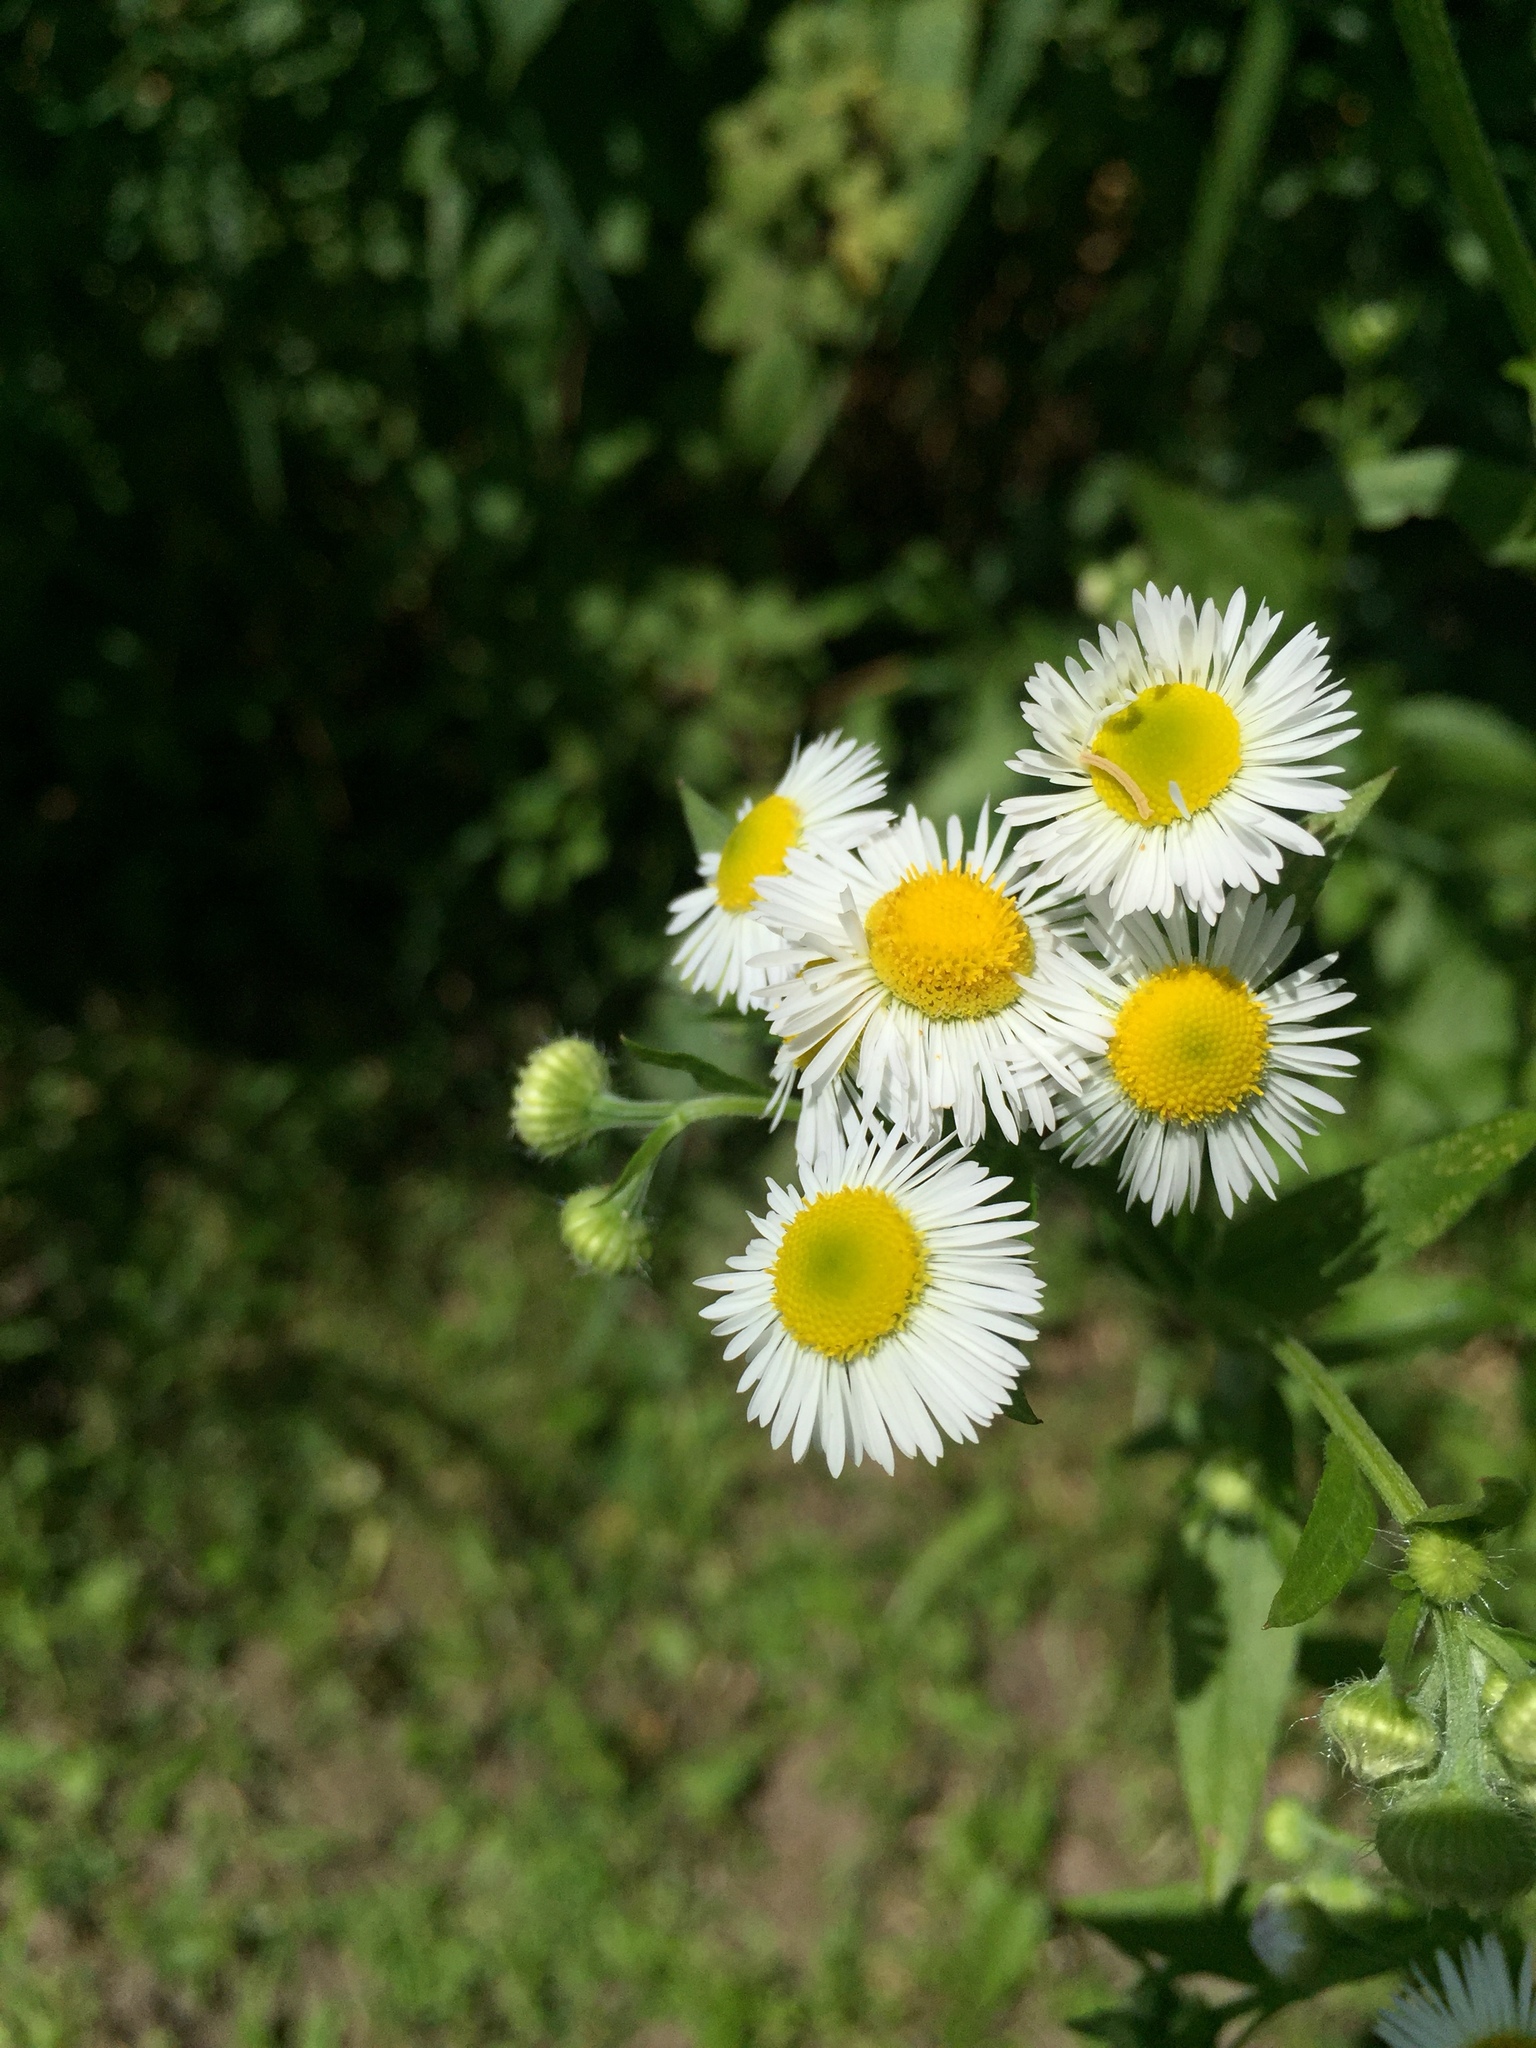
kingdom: Plantae
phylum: Tracheophyta
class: Magnoliopsida
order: Asterales
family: Asteraceae
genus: Erigeron
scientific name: Erigeron annuus
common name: Tall fleabane
